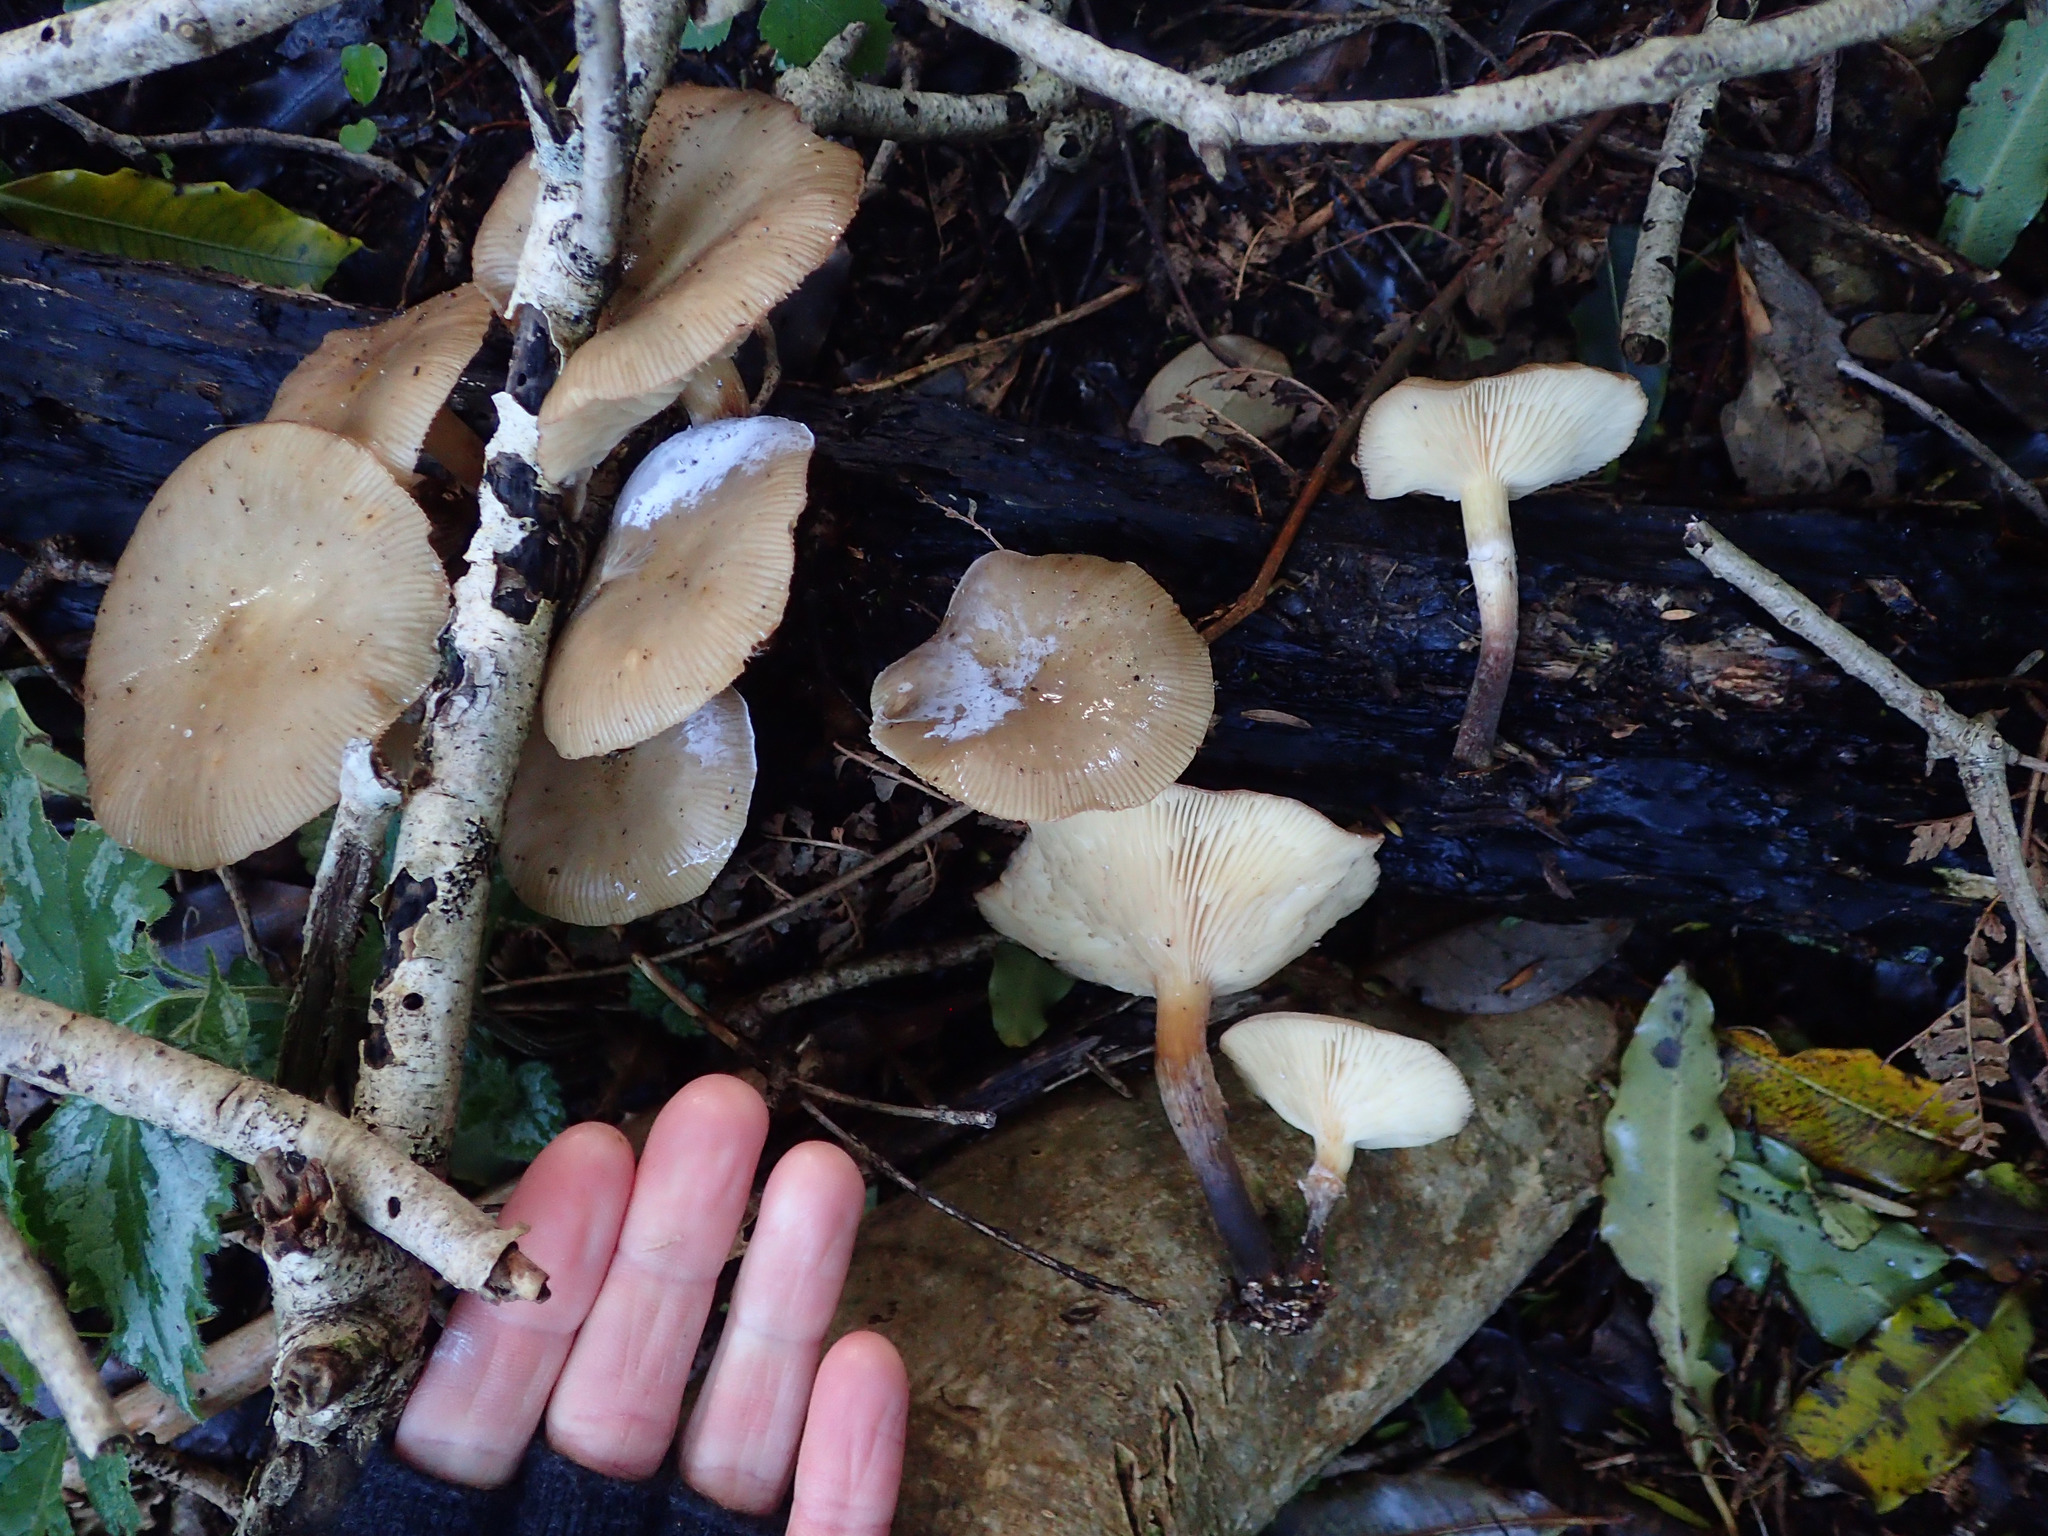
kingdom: Fungi
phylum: Basidiomycota
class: Agaricomycetes
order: Agaricales
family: Physalacriaceae
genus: Armillaria
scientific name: Armillaria novae-zelandiae
